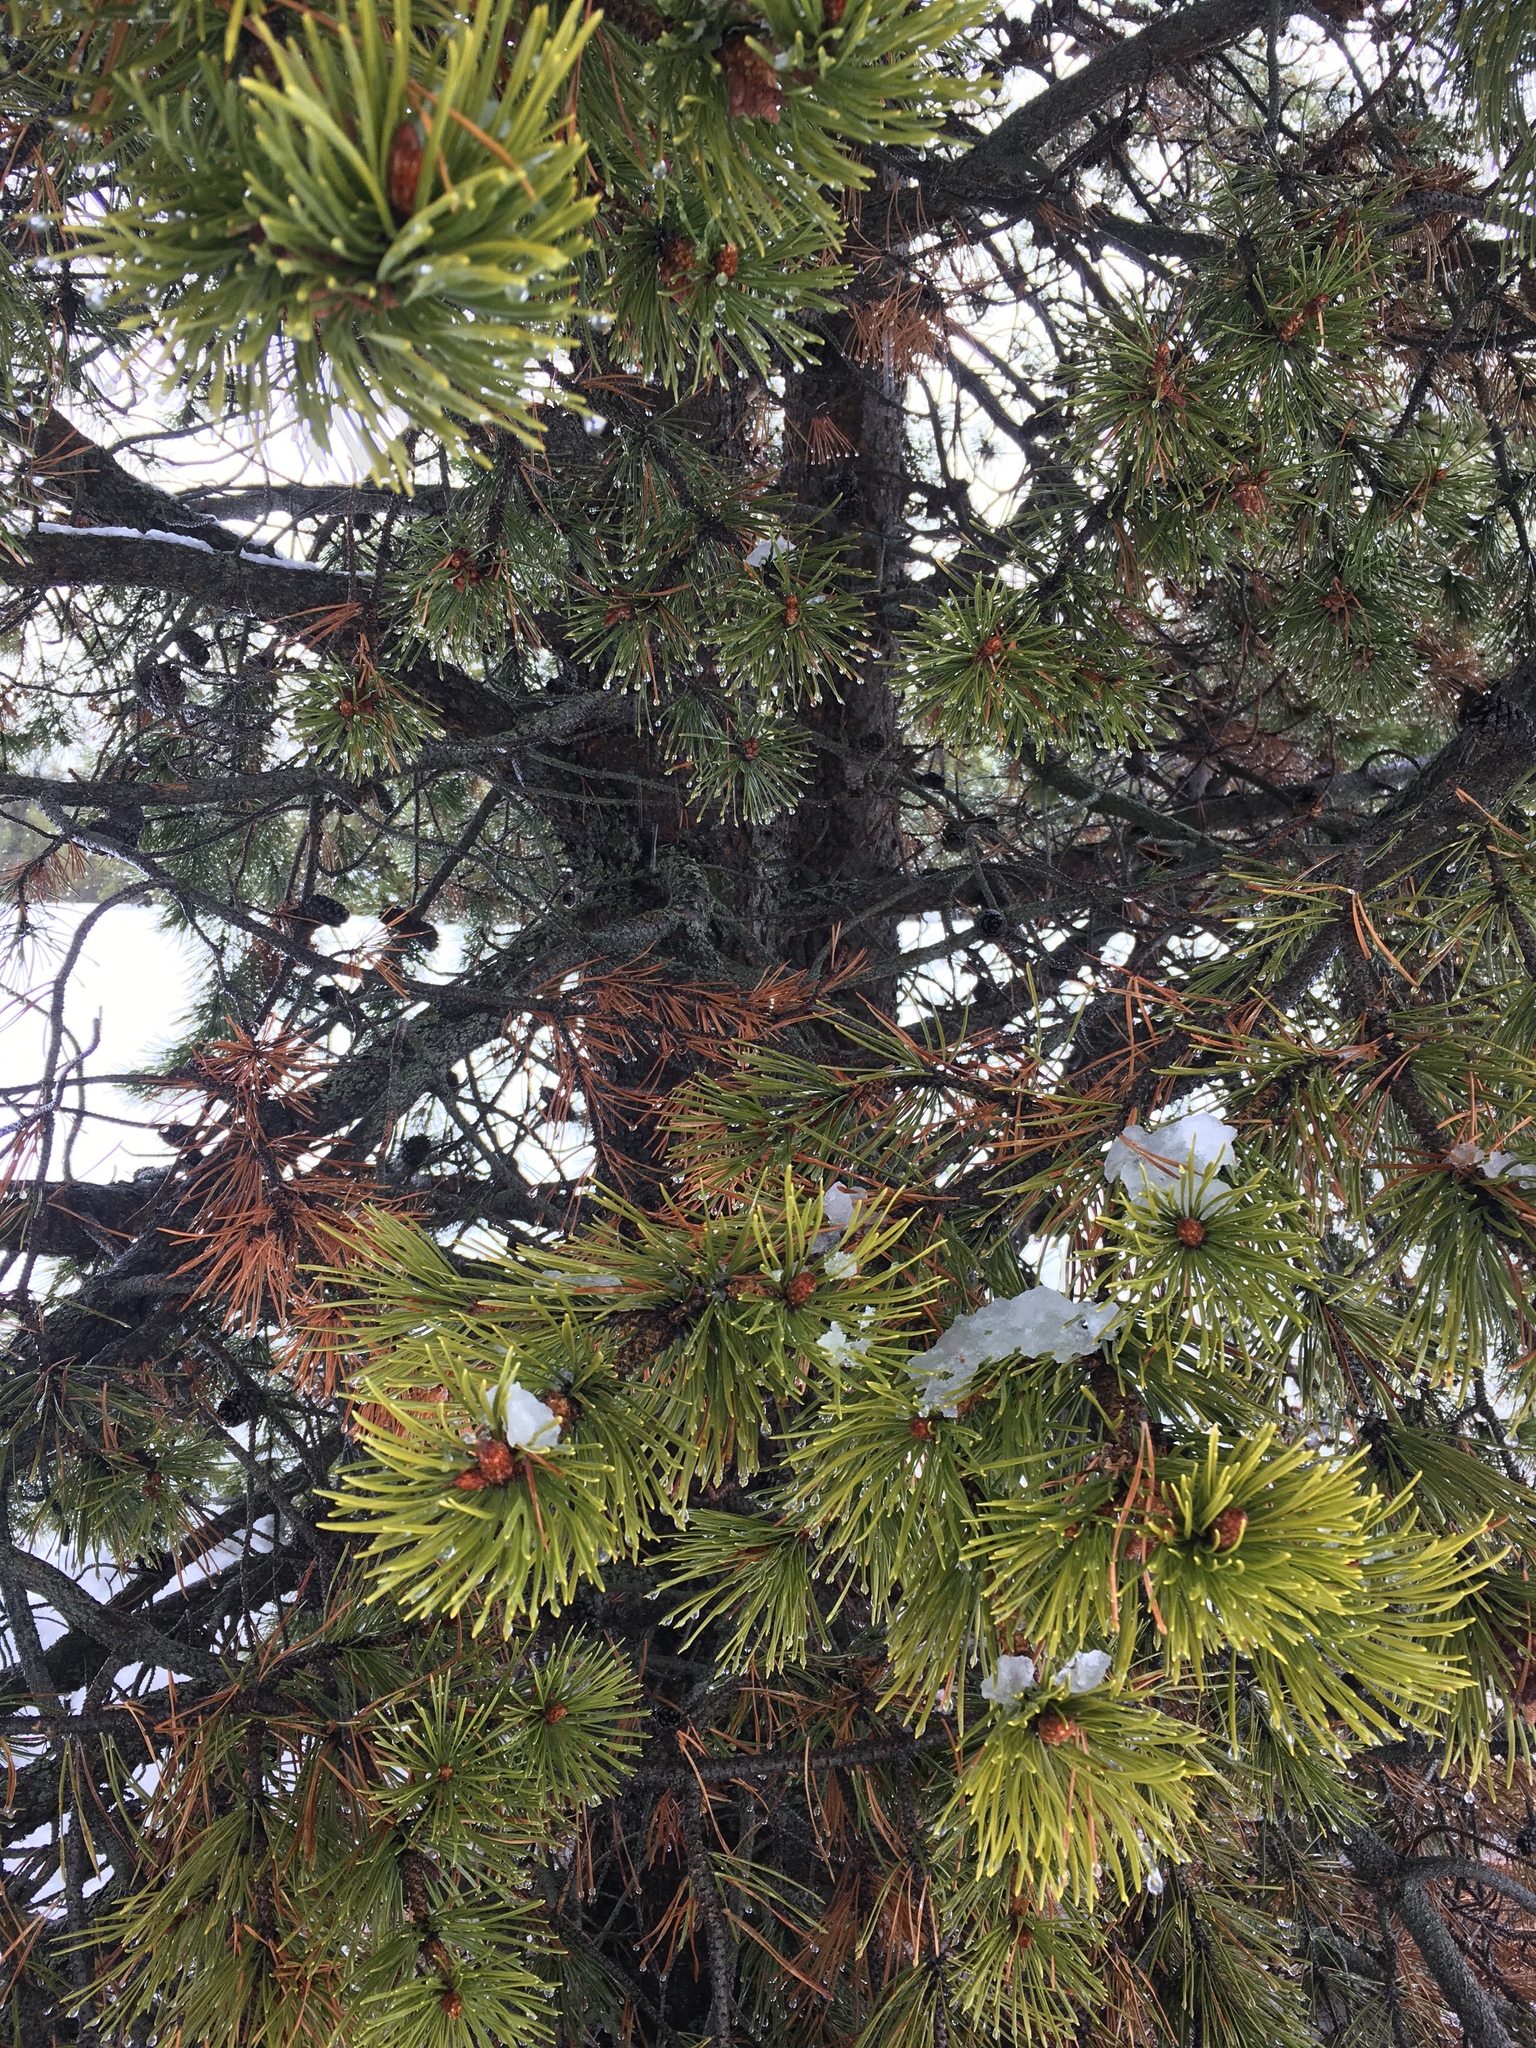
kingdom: Plantae
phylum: Tracheophyta
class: Pinopsida
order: Pinales
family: Pinaceae
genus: Pinus
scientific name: Pinus contorta
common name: Lodgepole pine
